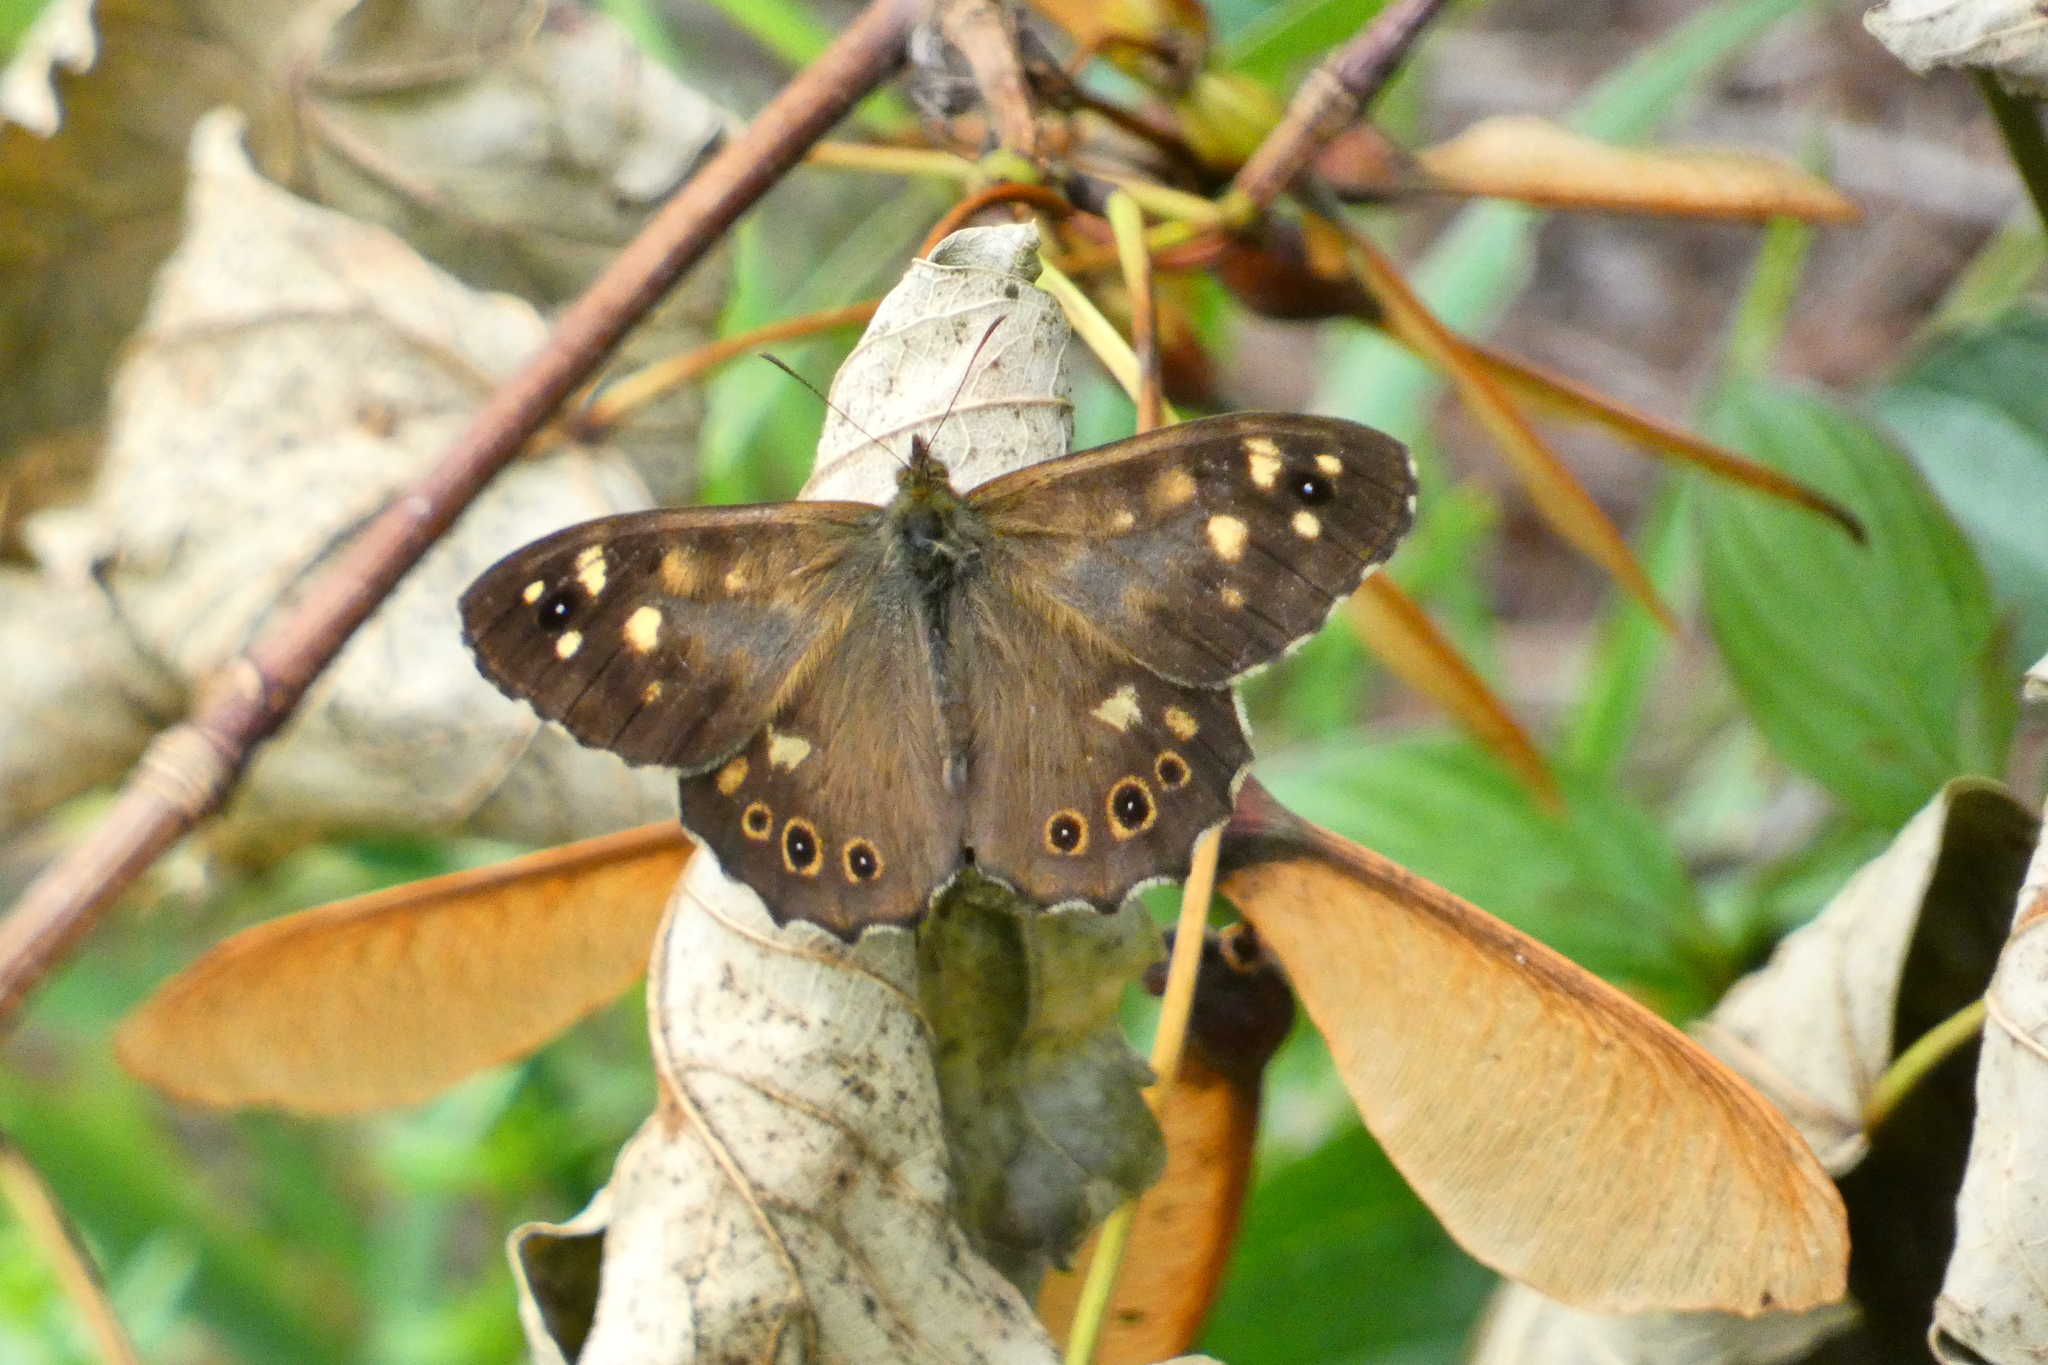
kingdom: Animalia
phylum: Arthropoda
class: Insecta
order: Lepidoptera
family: Nymphalidae
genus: Pararge
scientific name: Pararge aegeria
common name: Speckled wood
